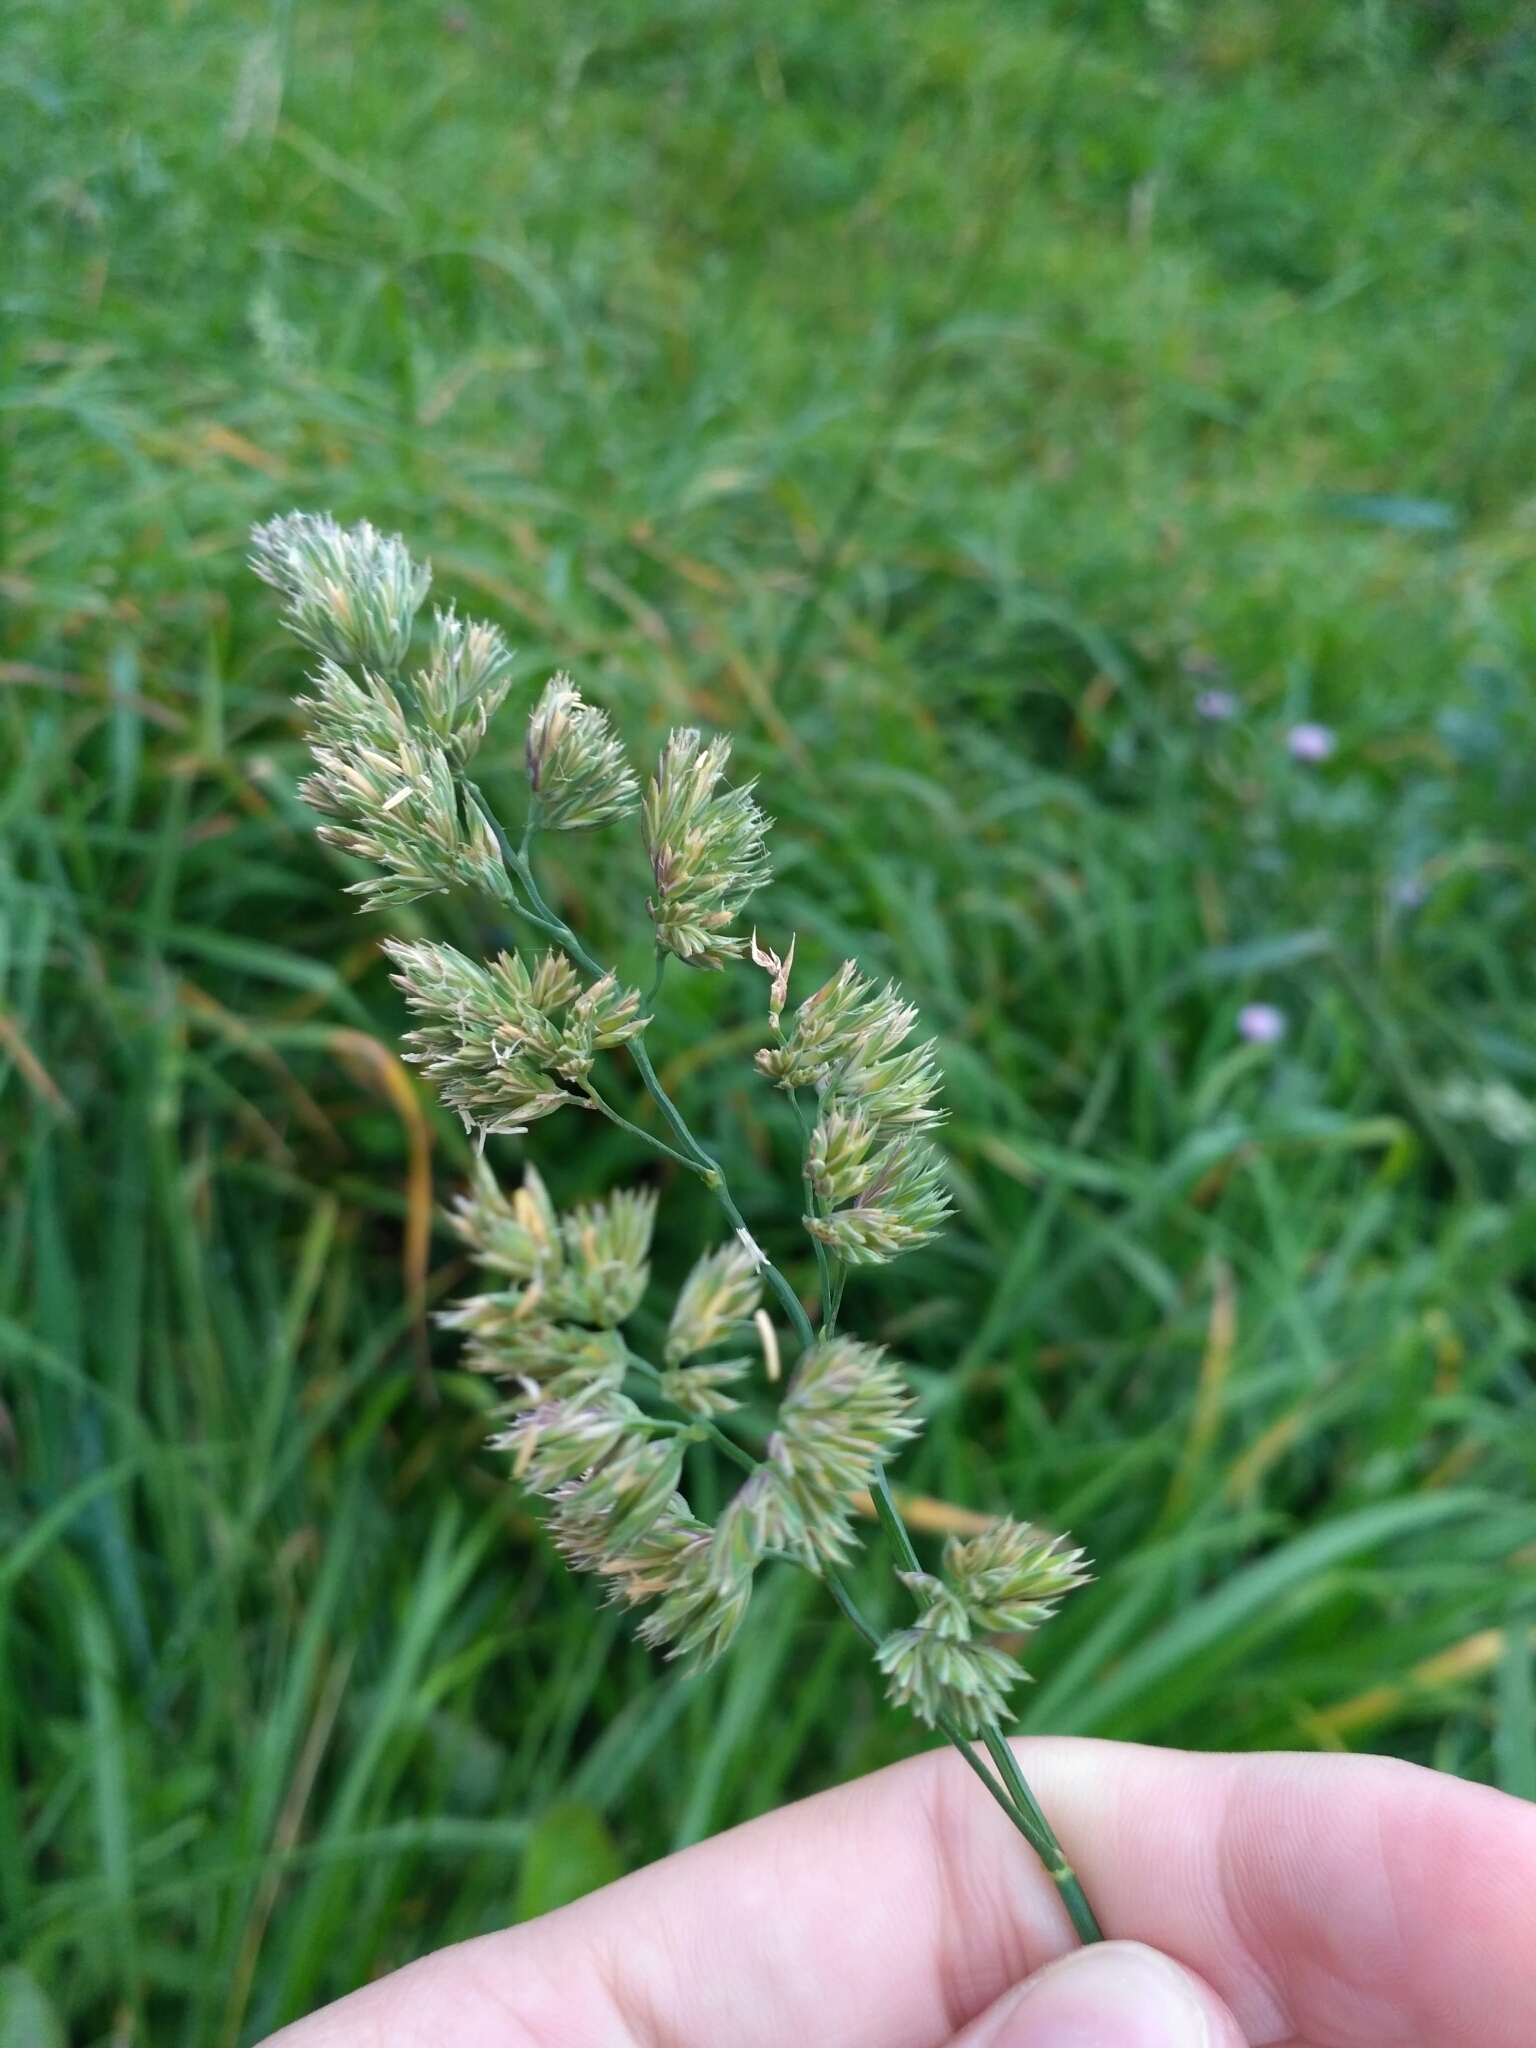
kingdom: Plantae
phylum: Tracheophyta
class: Liliopsida
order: Poales
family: Poaceae
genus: Dactylis
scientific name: Dactylis glomerata
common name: Orchardgrass
